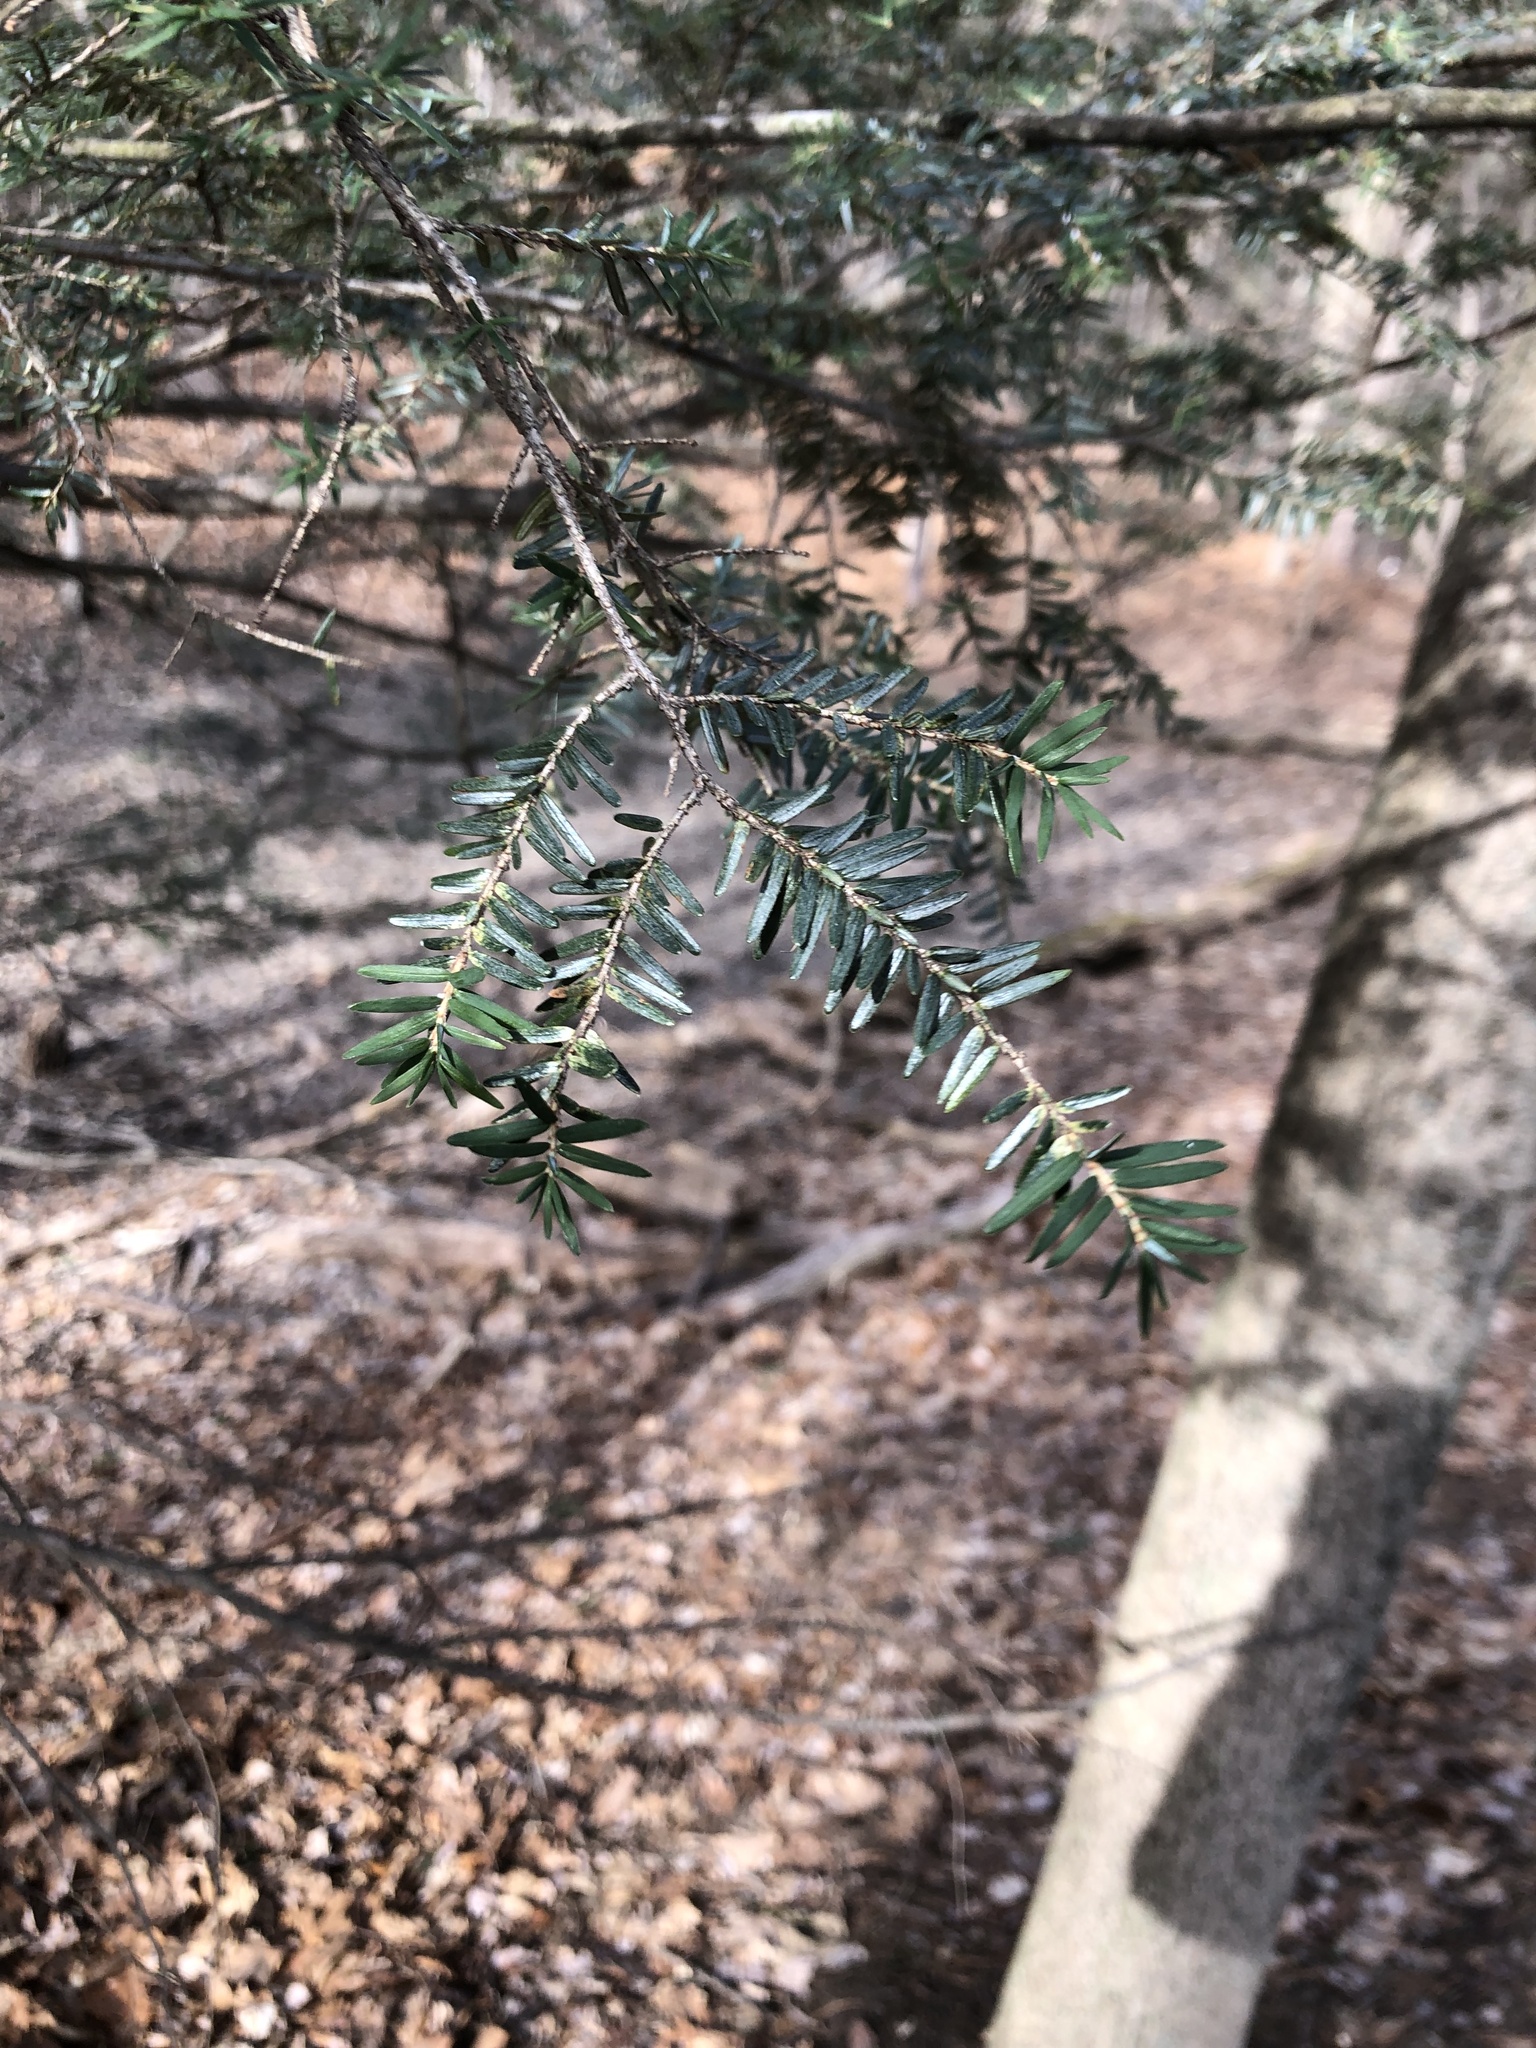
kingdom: Plantae
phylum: Tracheophyta
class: Pinopsida
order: Pinales
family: Pinaceae
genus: Tsuga
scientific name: Tsuga canadensis
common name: Eastern hemlock
